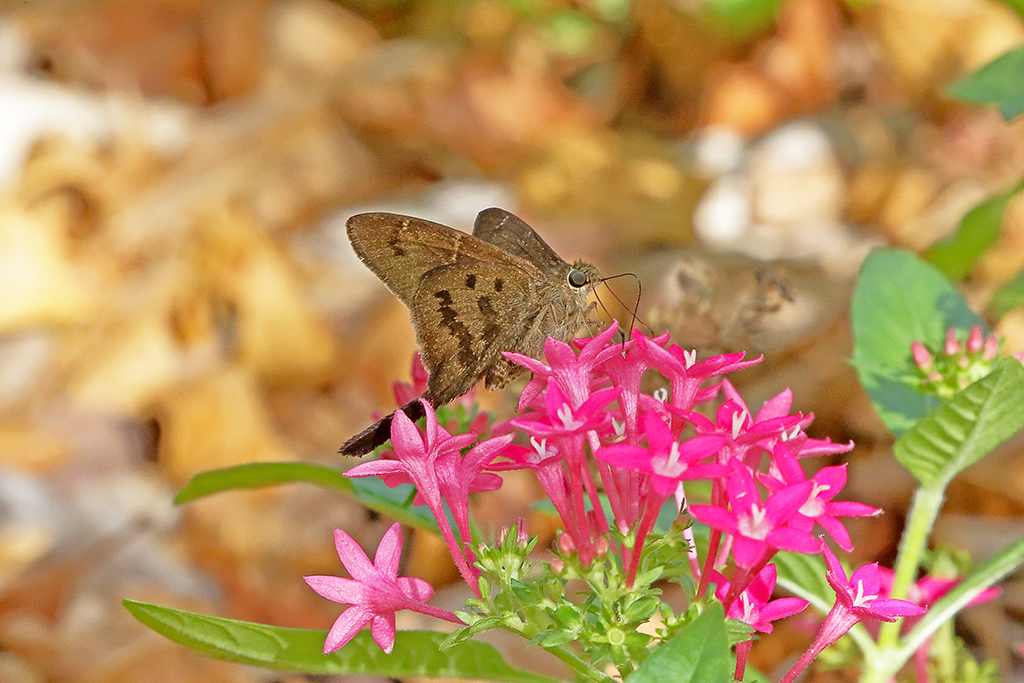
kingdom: Animalia
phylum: Arthropoda
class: Insecta
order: Lepidoptera
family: Hesperiidae
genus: Urbanus
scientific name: Urbanus procne
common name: Brown longtail
